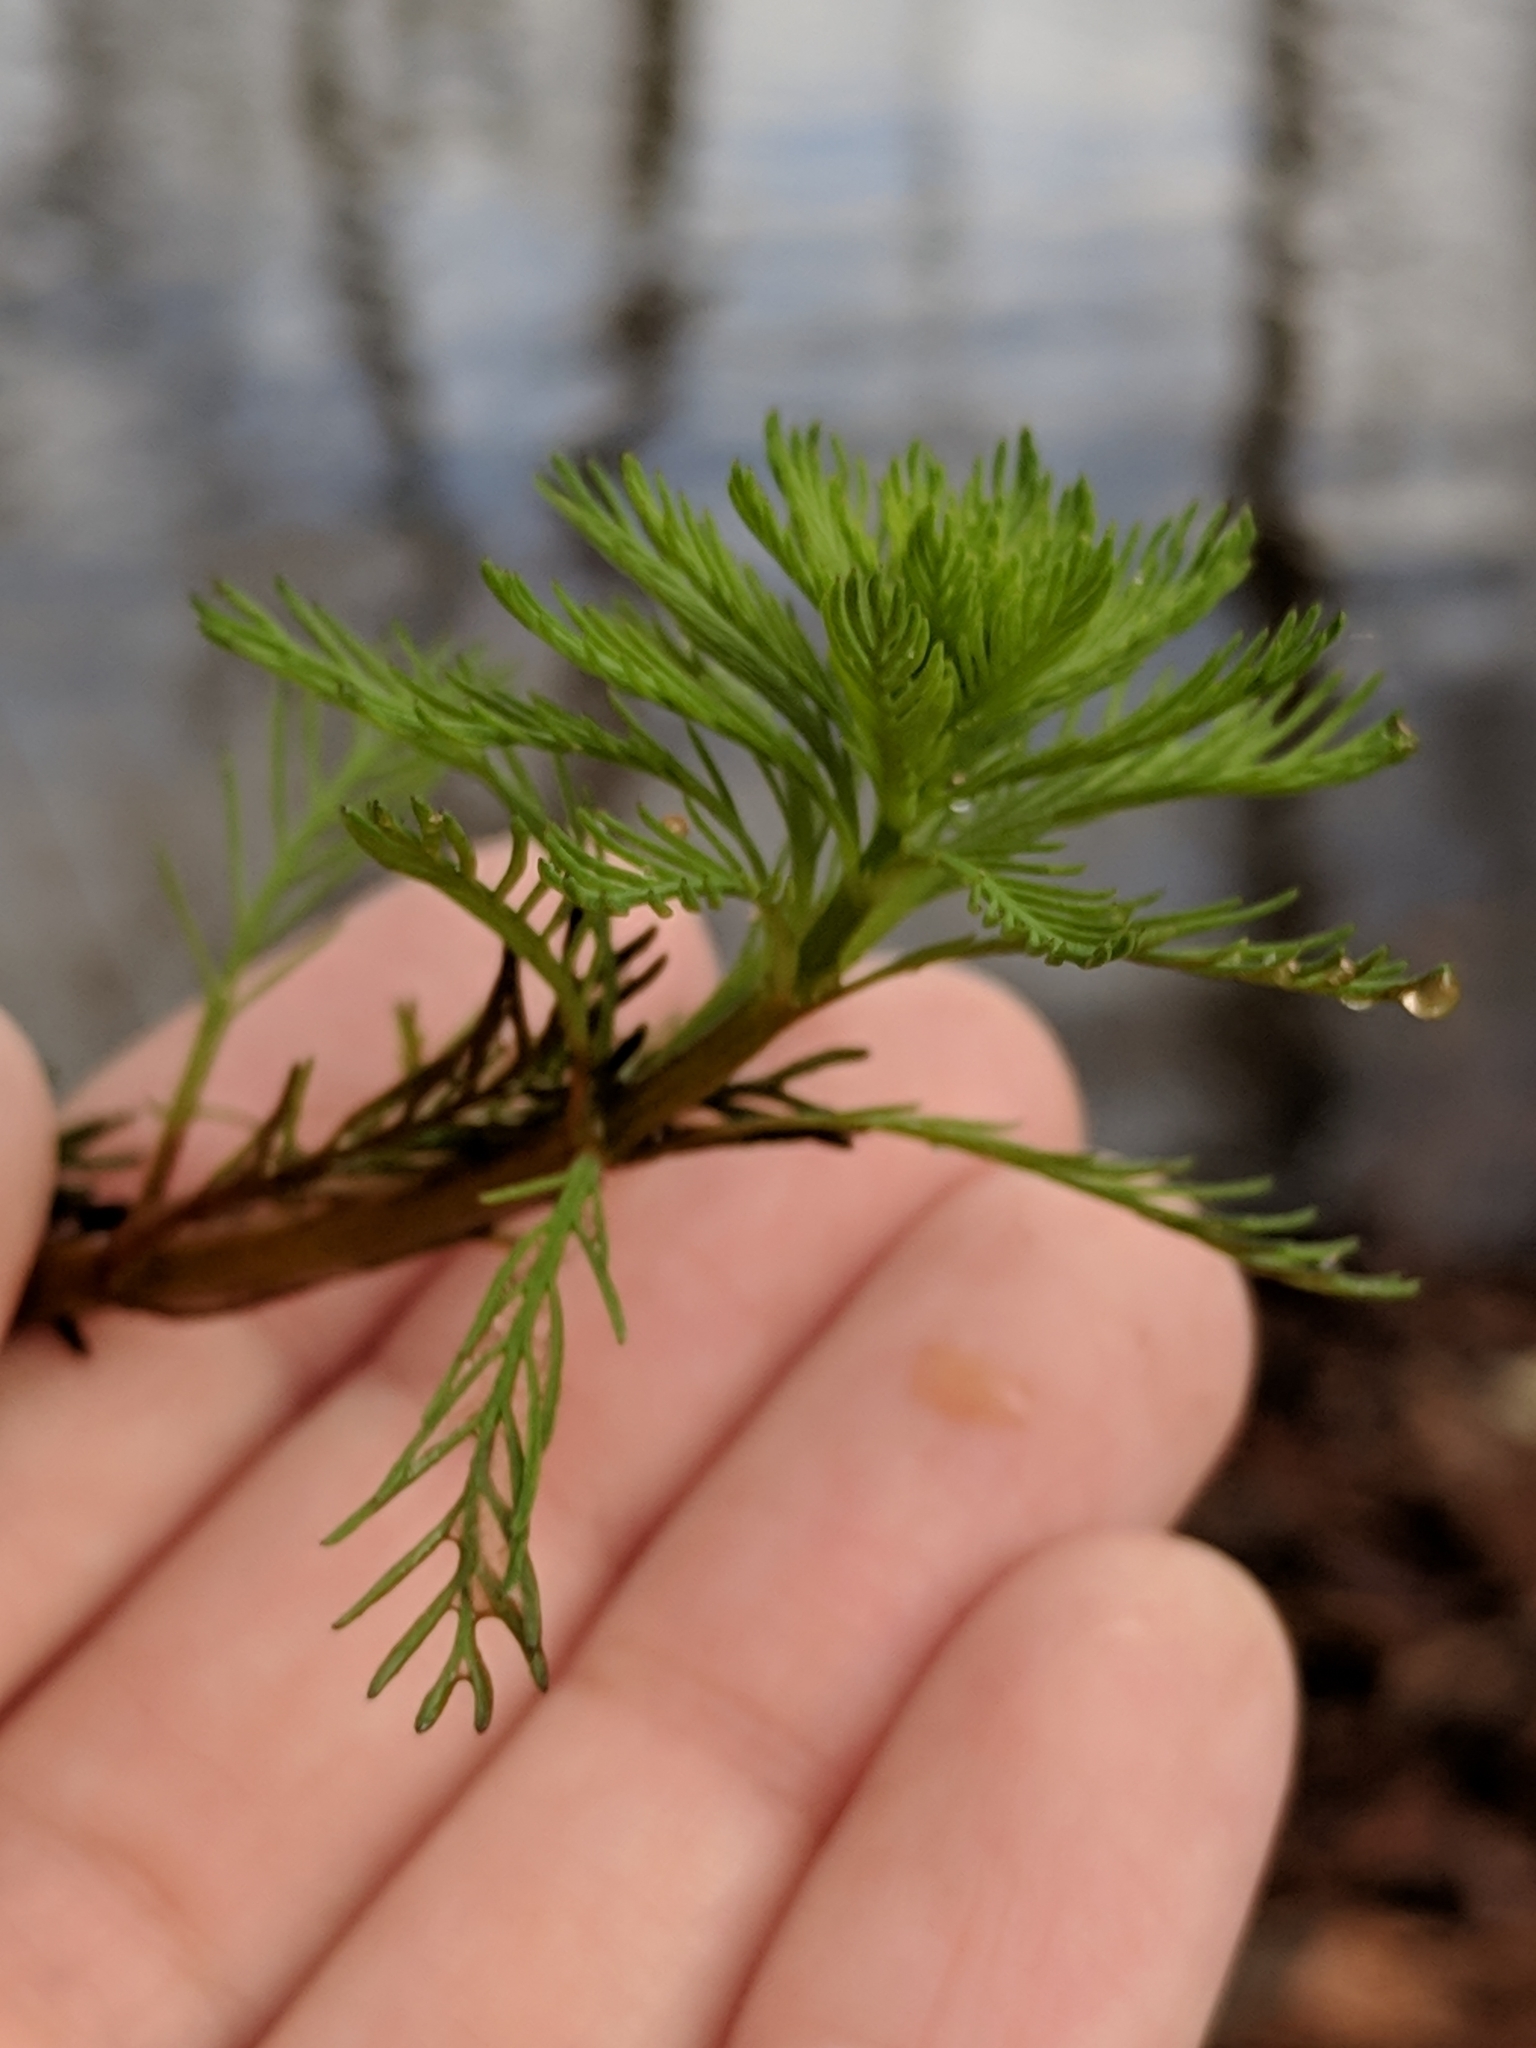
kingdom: Plantae
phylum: Tracheophyta
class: Magnoliopsida
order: Saxifragales
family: Haloragaceae
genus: Myriophyllum
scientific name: Myriophyllum aquaticum
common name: Parrot's feather
